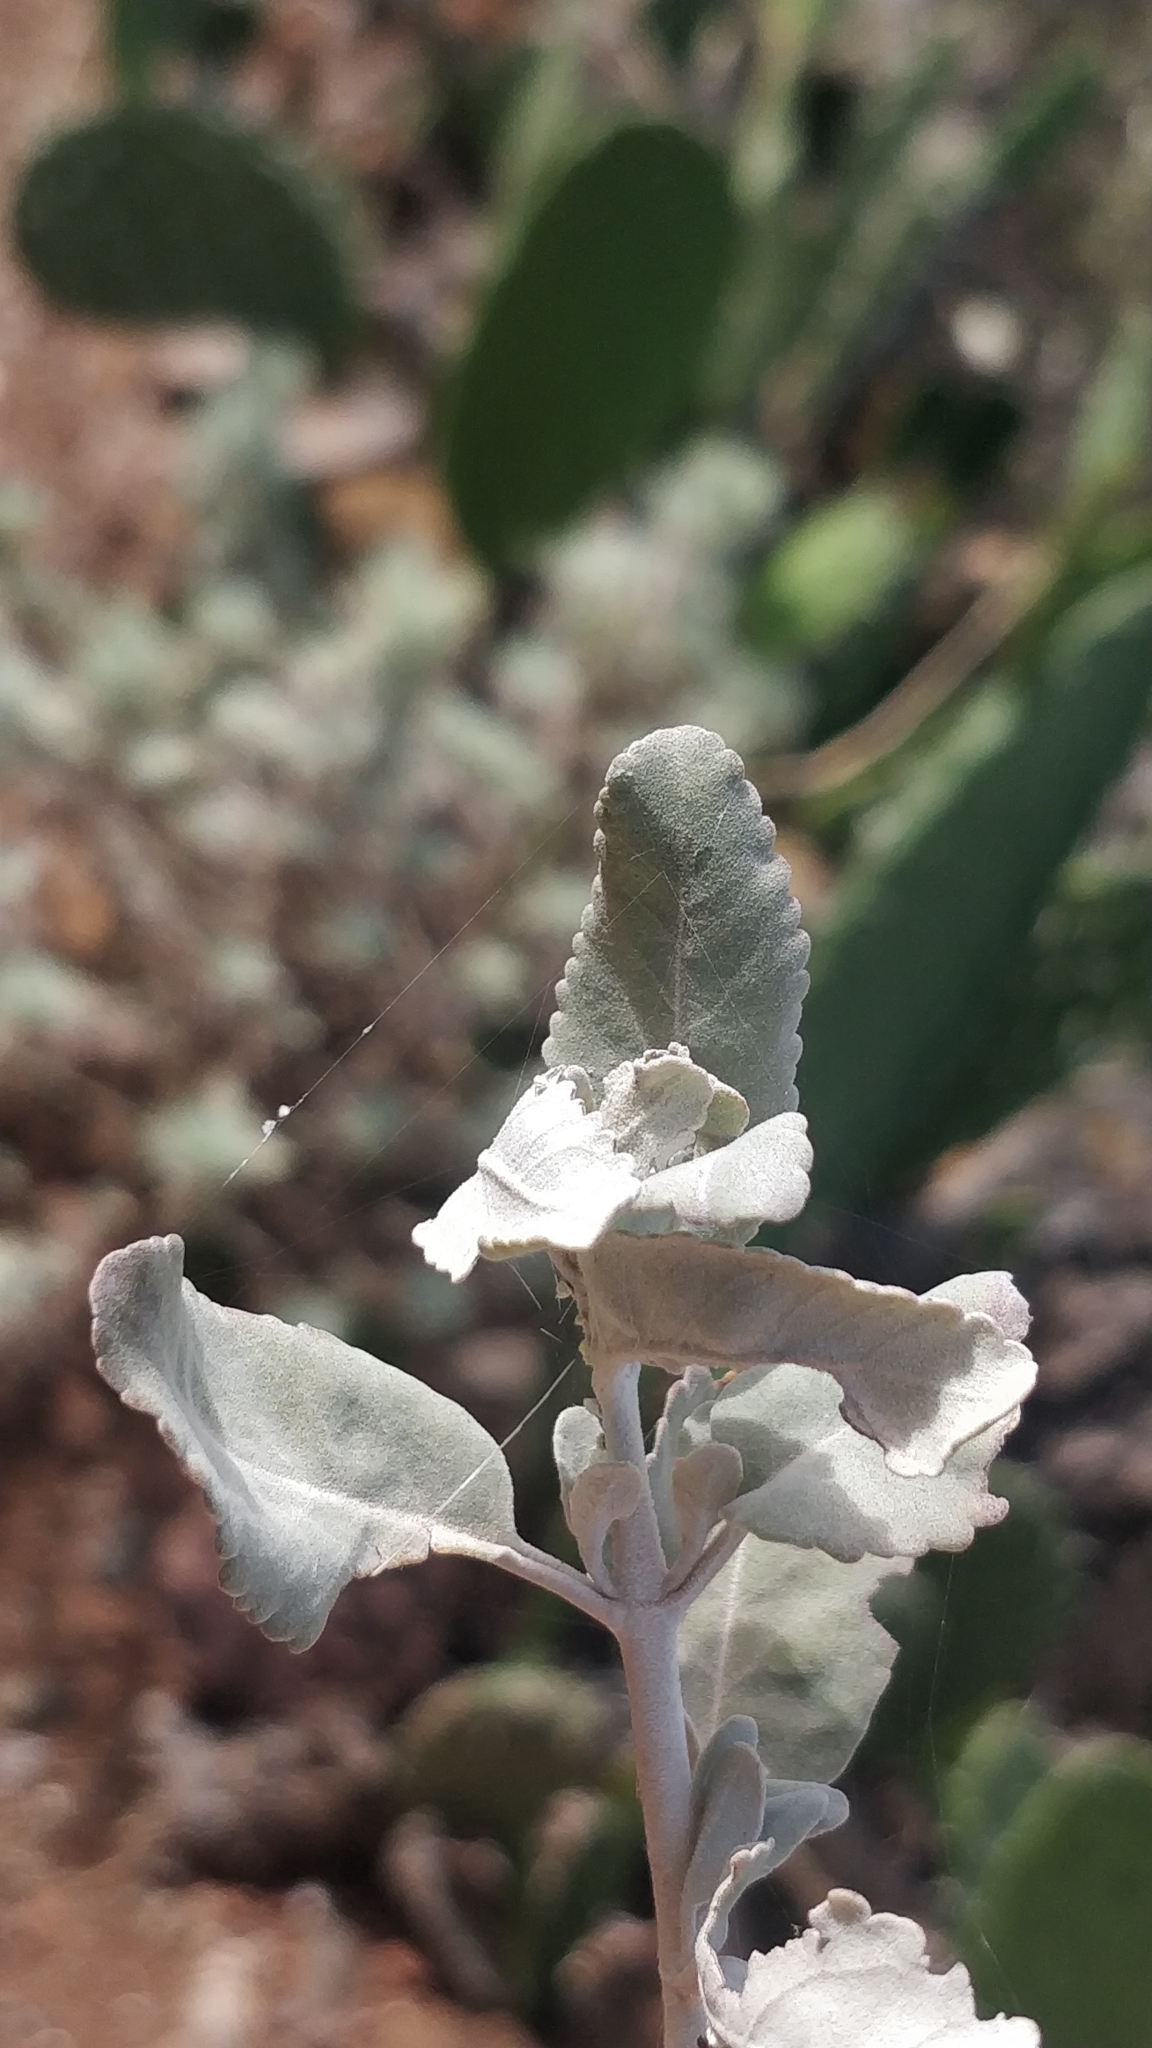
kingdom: Plantae
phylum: Tracheophyta
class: Magnoliopsida
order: Lamiales
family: Lamiaceae
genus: Teucrium
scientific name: Teucrium heterophyllum
